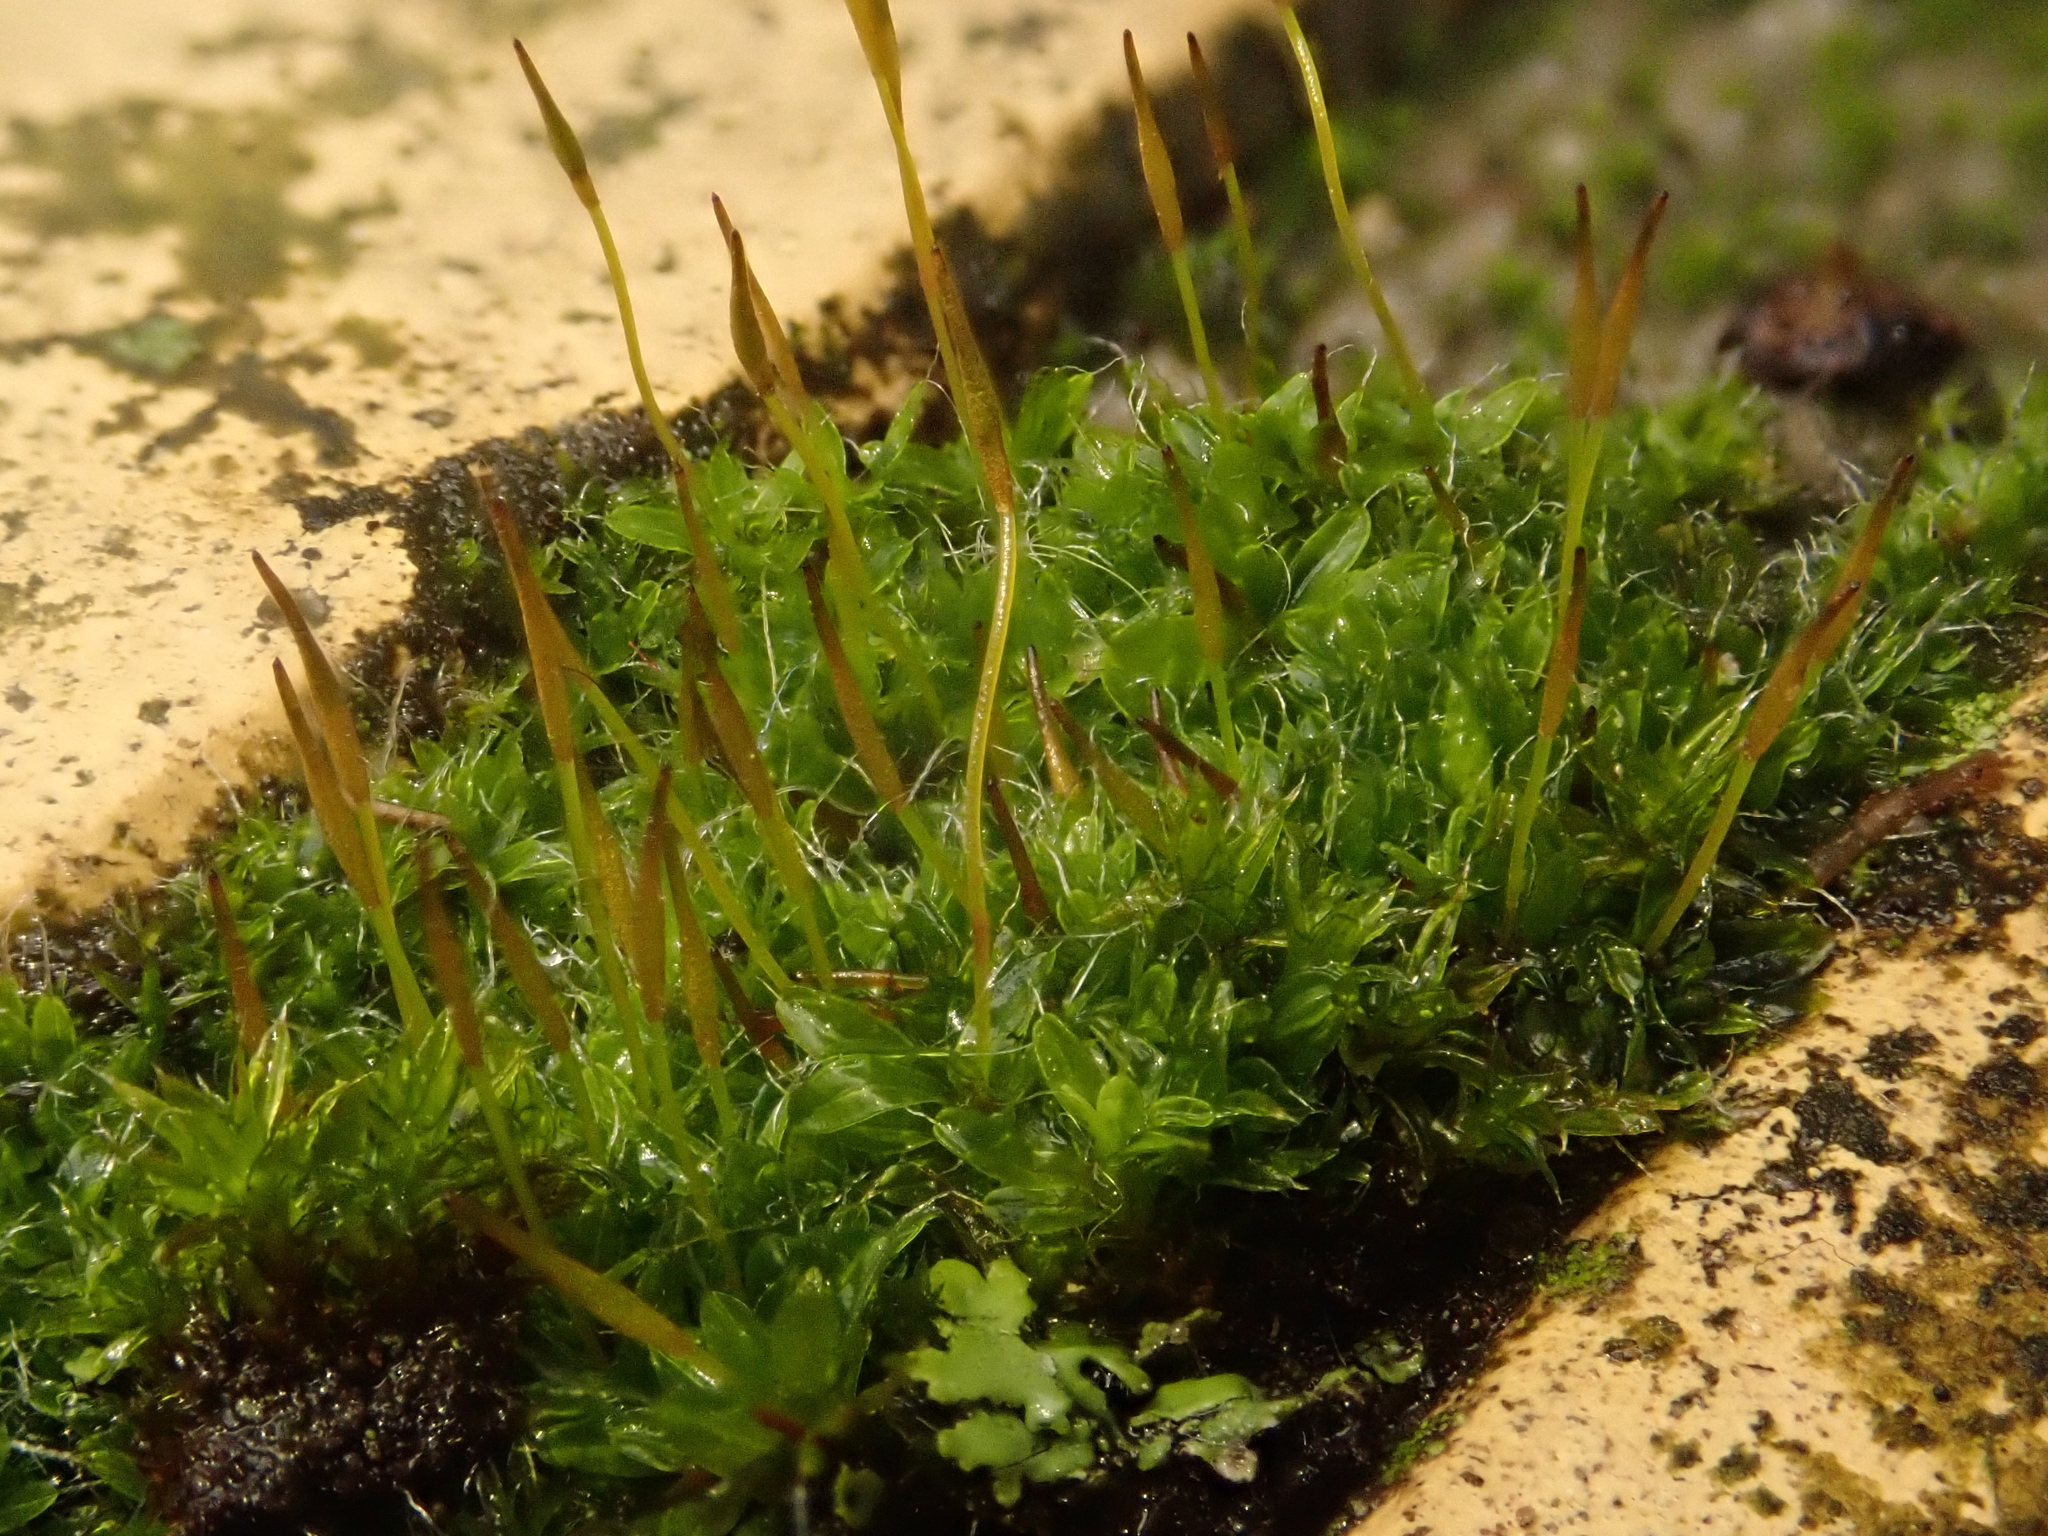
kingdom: Plantae
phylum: Bryophyta
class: Bryopsida
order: Pottiales
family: Pottiaceae
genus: Tortula
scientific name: Tortula muralis
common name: Wall screw-moss
